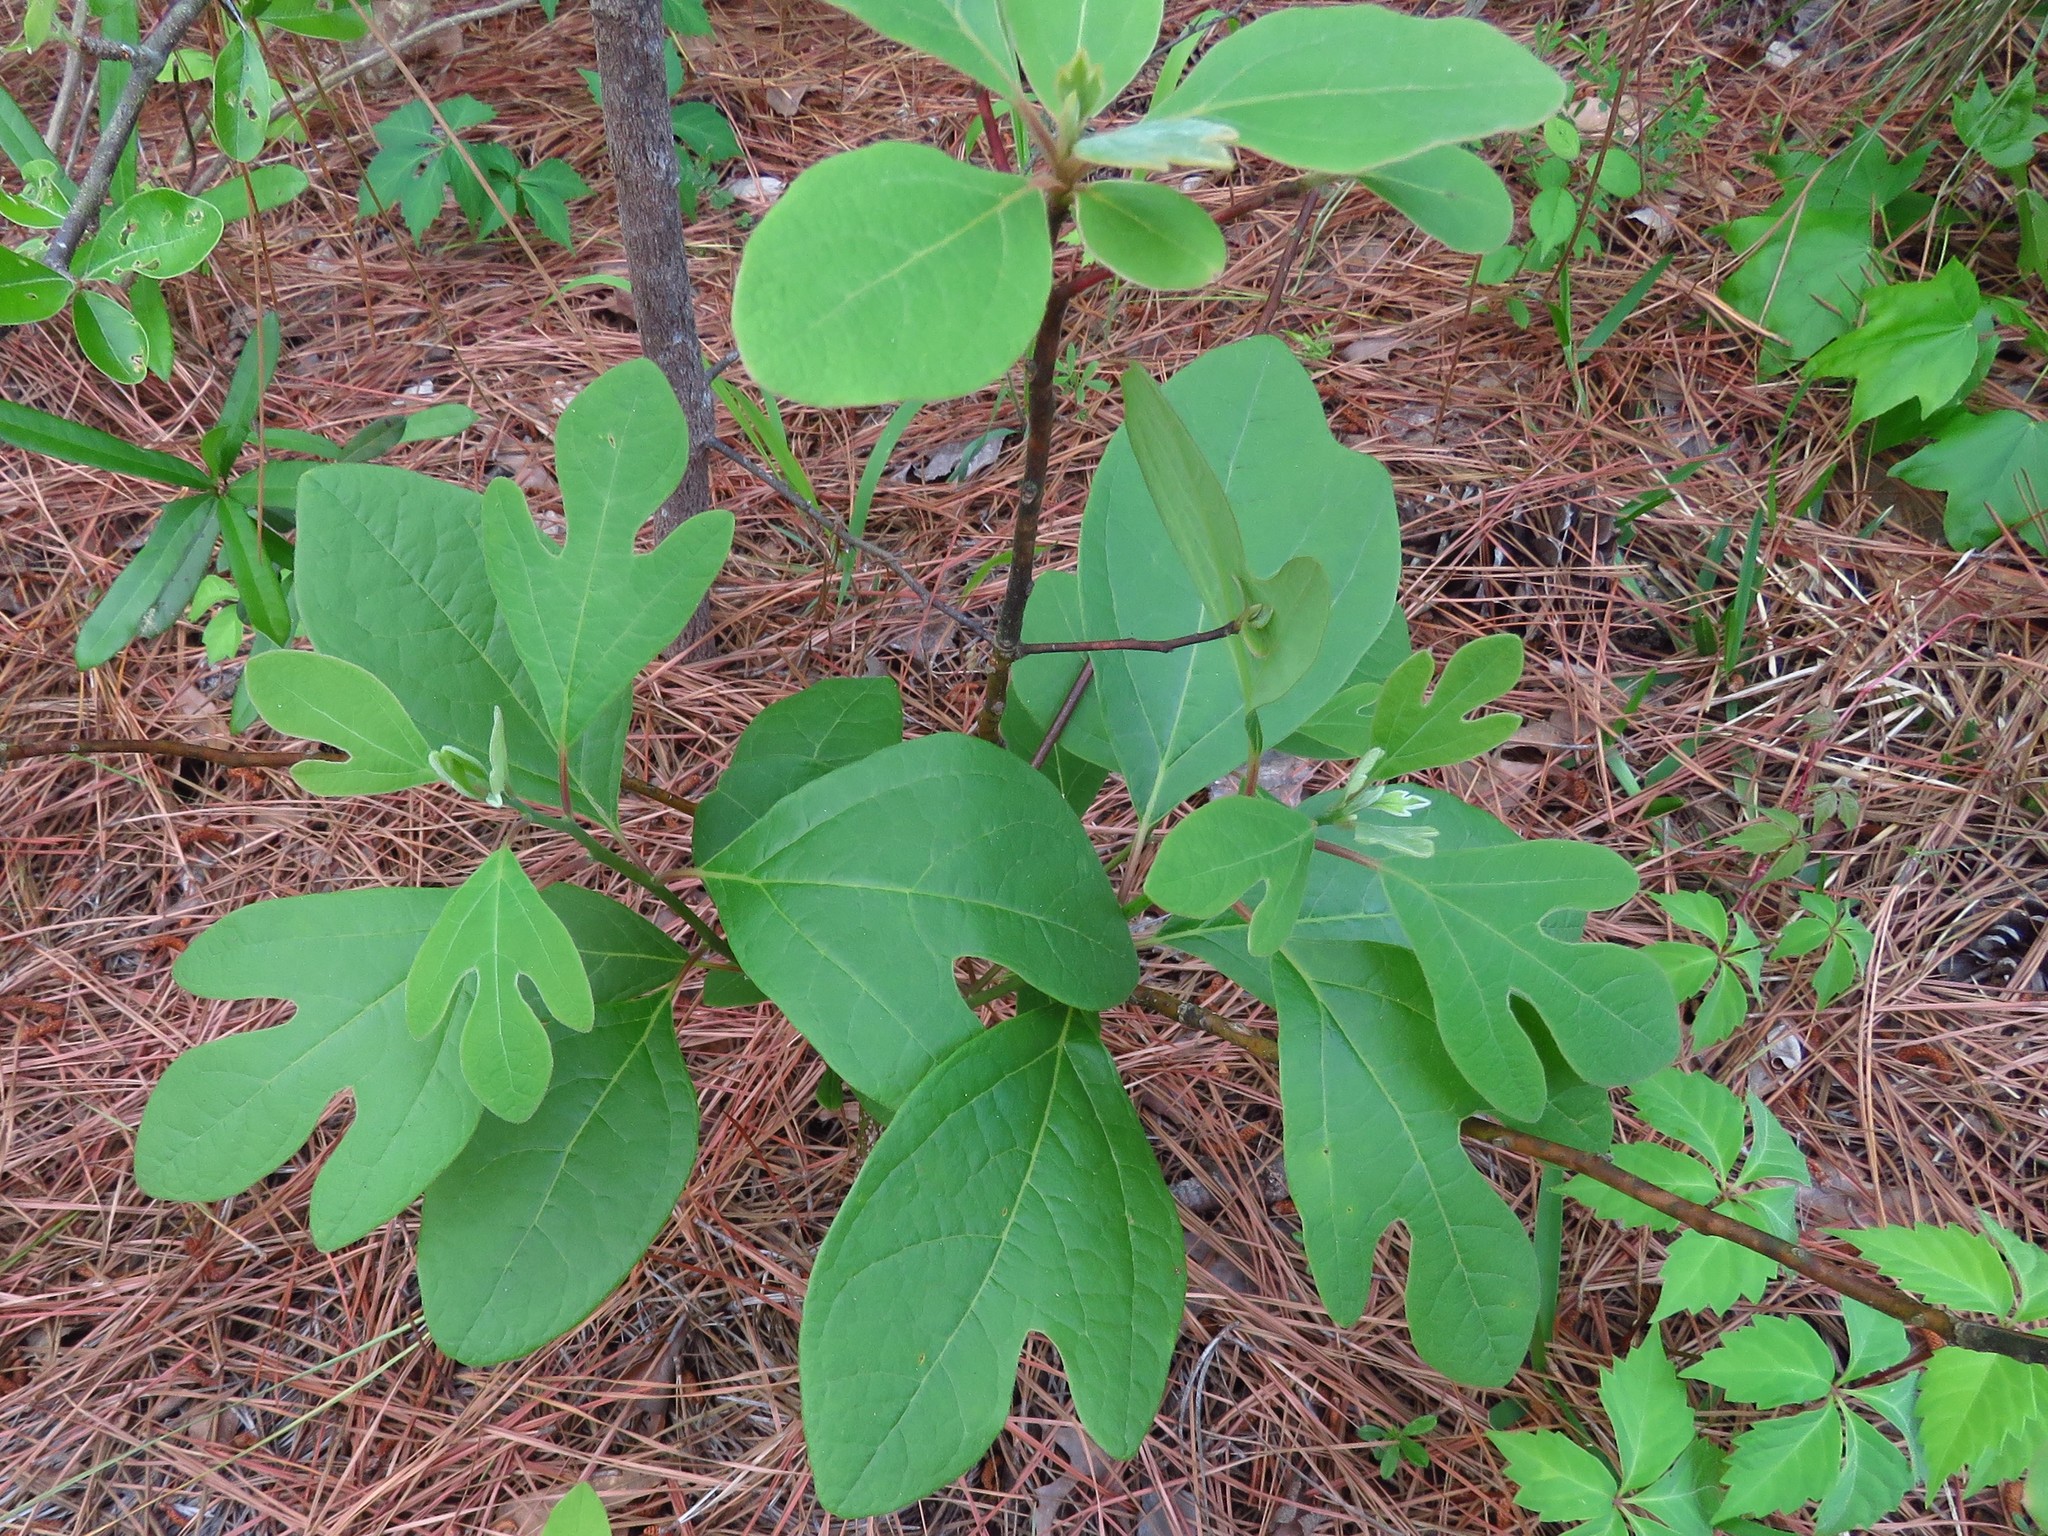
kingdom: Plantae
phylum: Tracheophyta
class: Magnoliopsida
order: Laurales
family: Lauraceae
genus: Sassafras
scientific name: Sassafras albidum
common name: Sassafras
